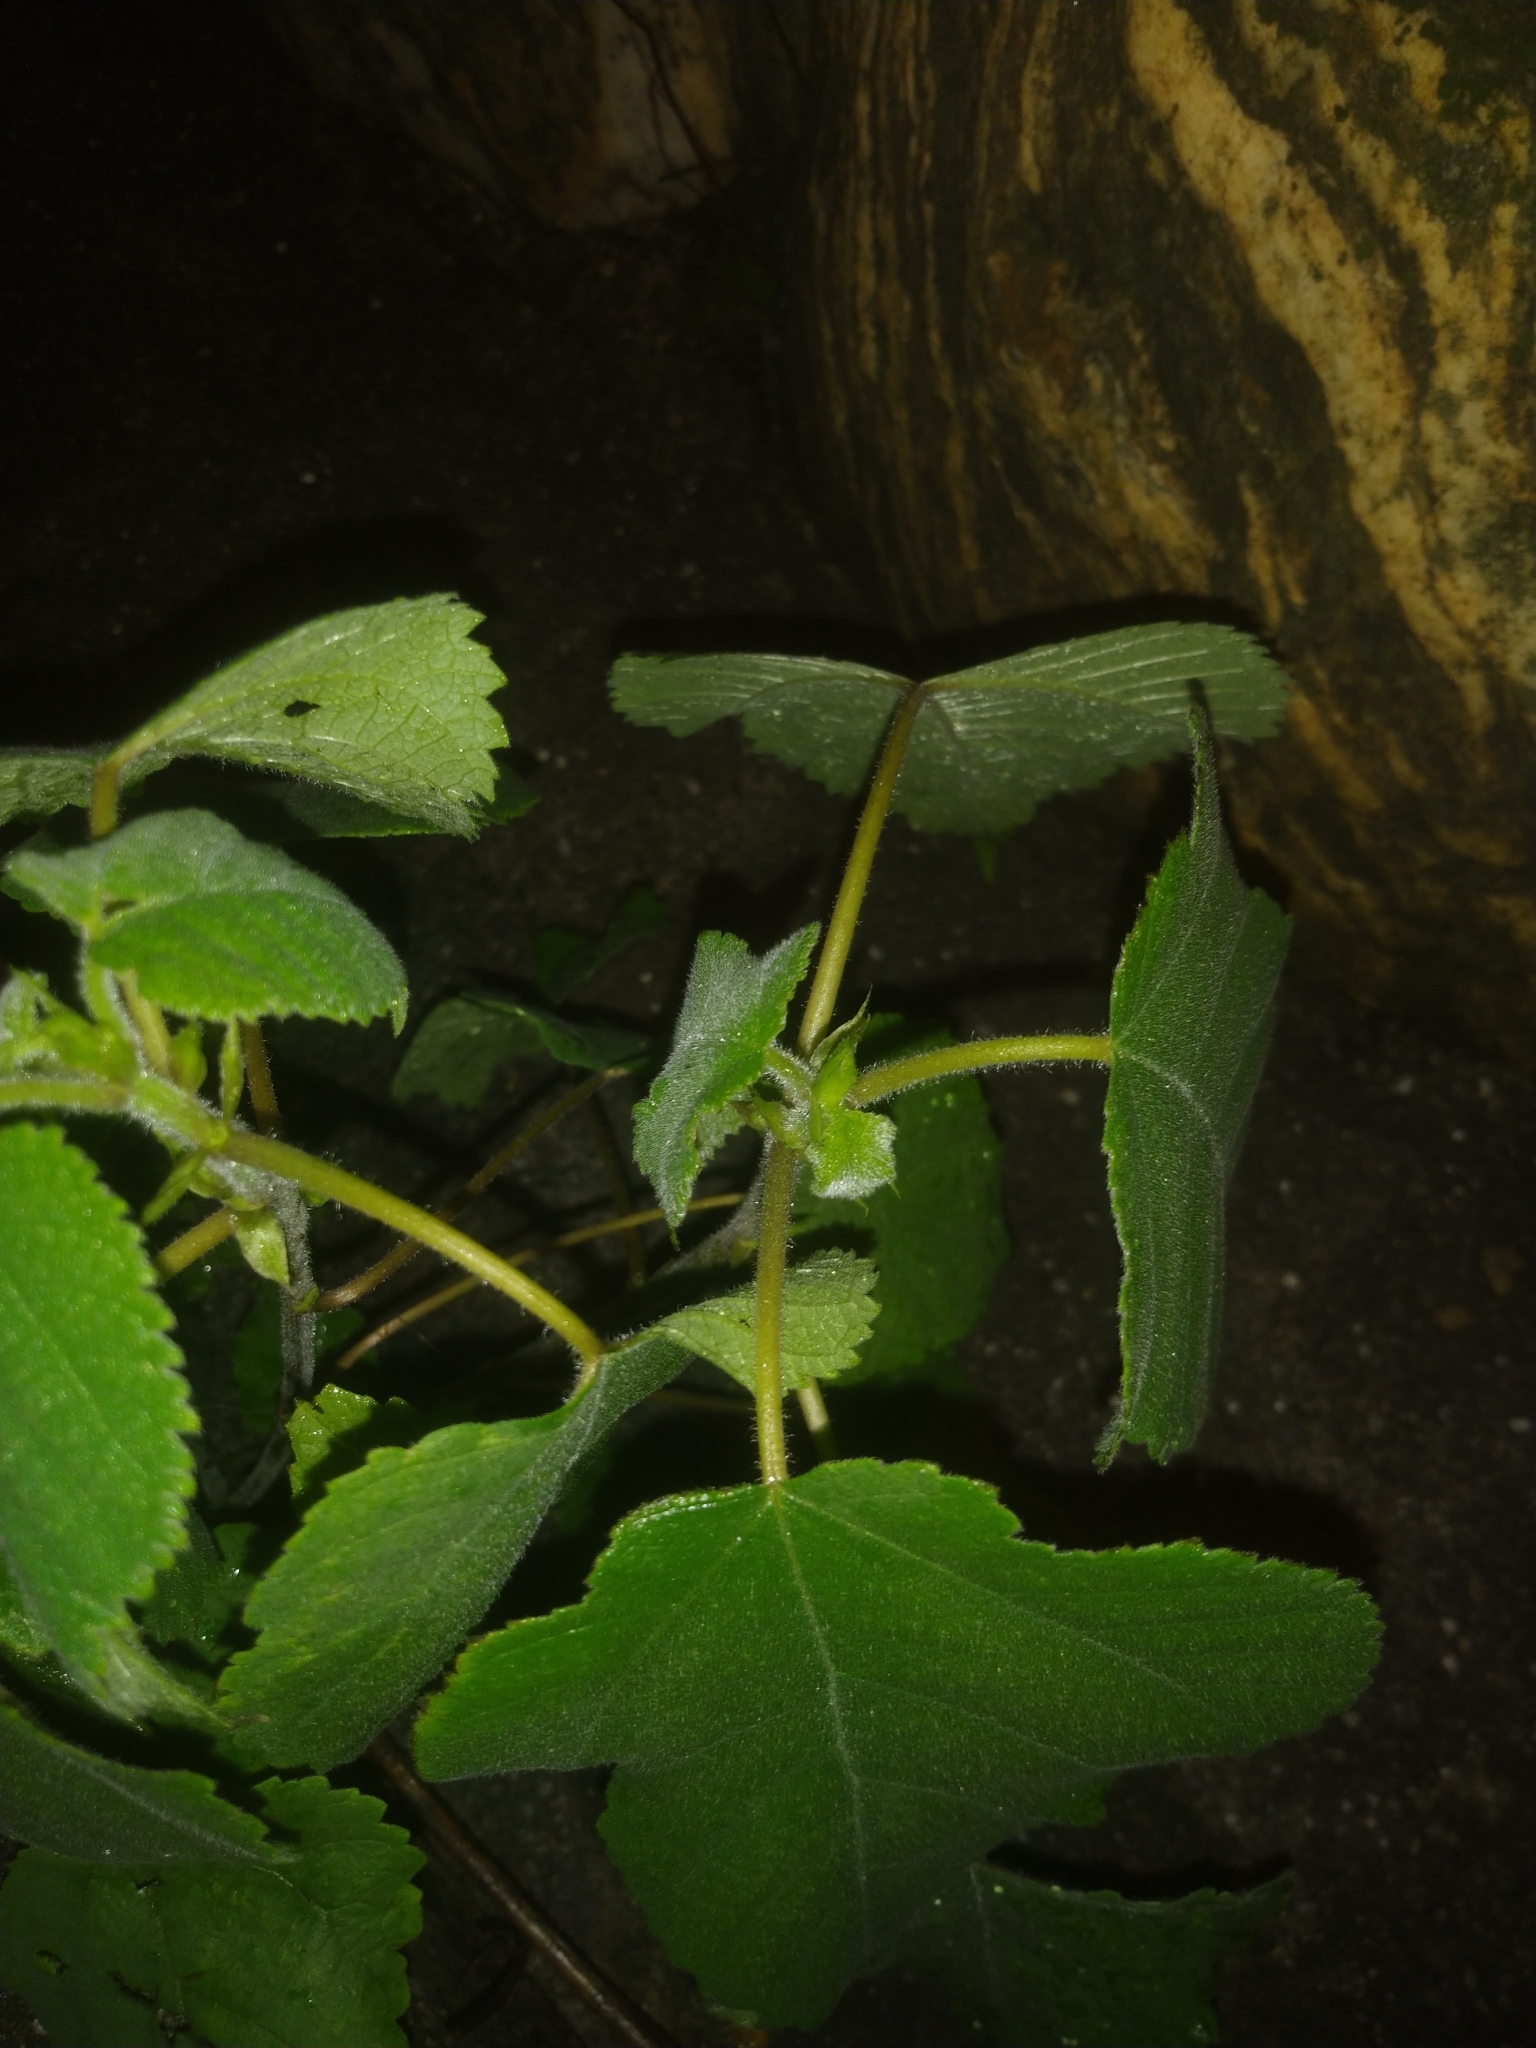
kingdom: Plantae
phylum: Tracheophyta
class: Magnoliopsida
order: Rosales
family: Moraceae
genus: Broussonetia
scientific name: Broussonetia papyrifera
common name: Paper mulberry
